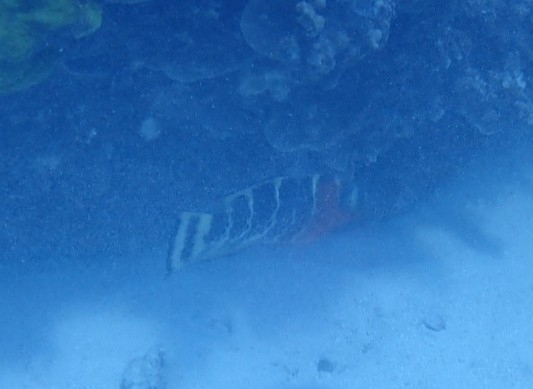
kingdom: Animalia
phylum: Chordata
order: Perciformes
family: Labridae
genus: Cheilinus
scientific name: Cheilinus fasciatus
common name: Red-breasted wrasse
